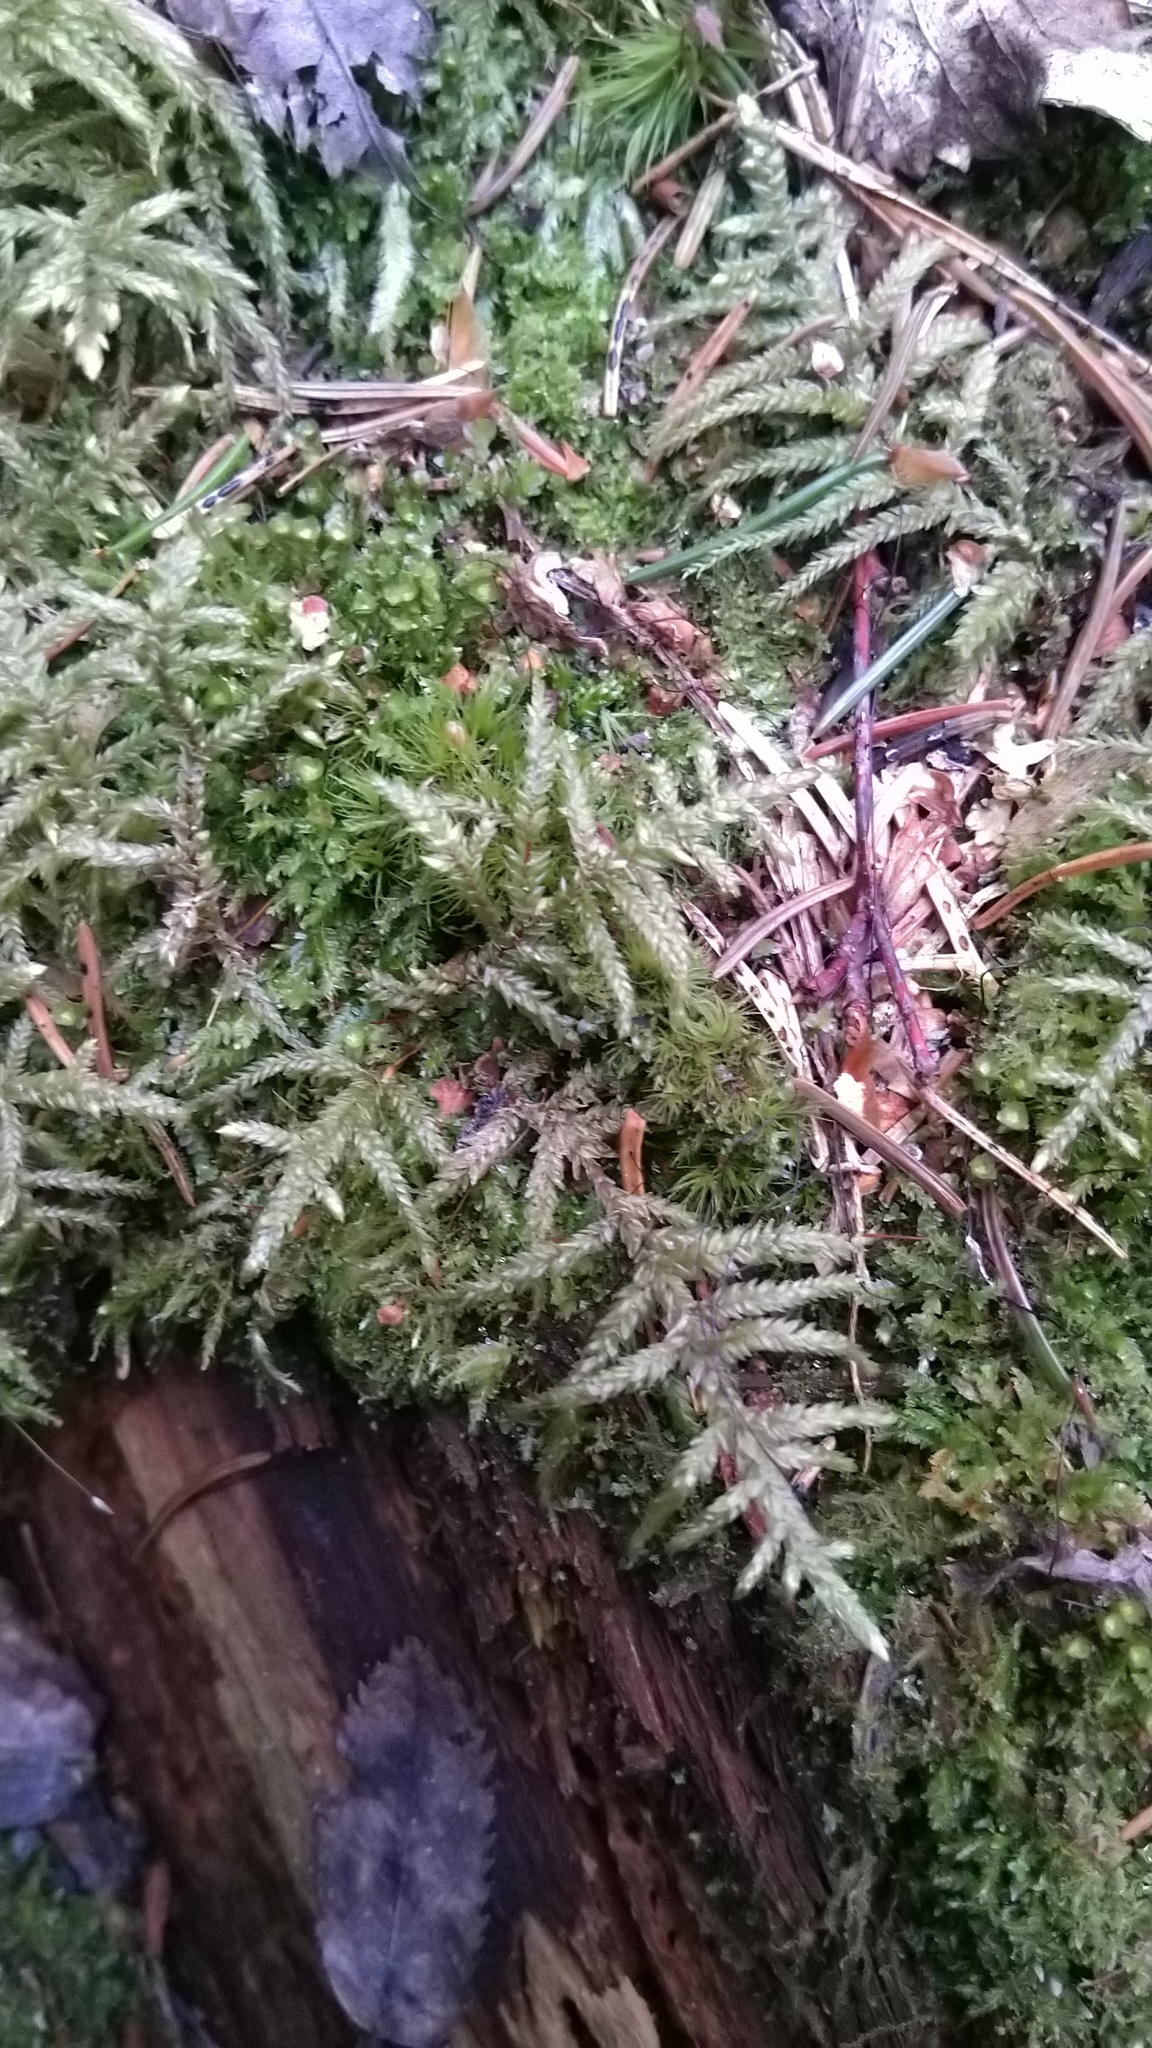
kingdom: Plantae
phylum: Bryophyta
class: Bryopsida
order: Hypnales
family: Hylocomiaceae
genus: Pleurozium
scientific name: Pleurozium schreberi
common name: Red-stemmed feather moss
